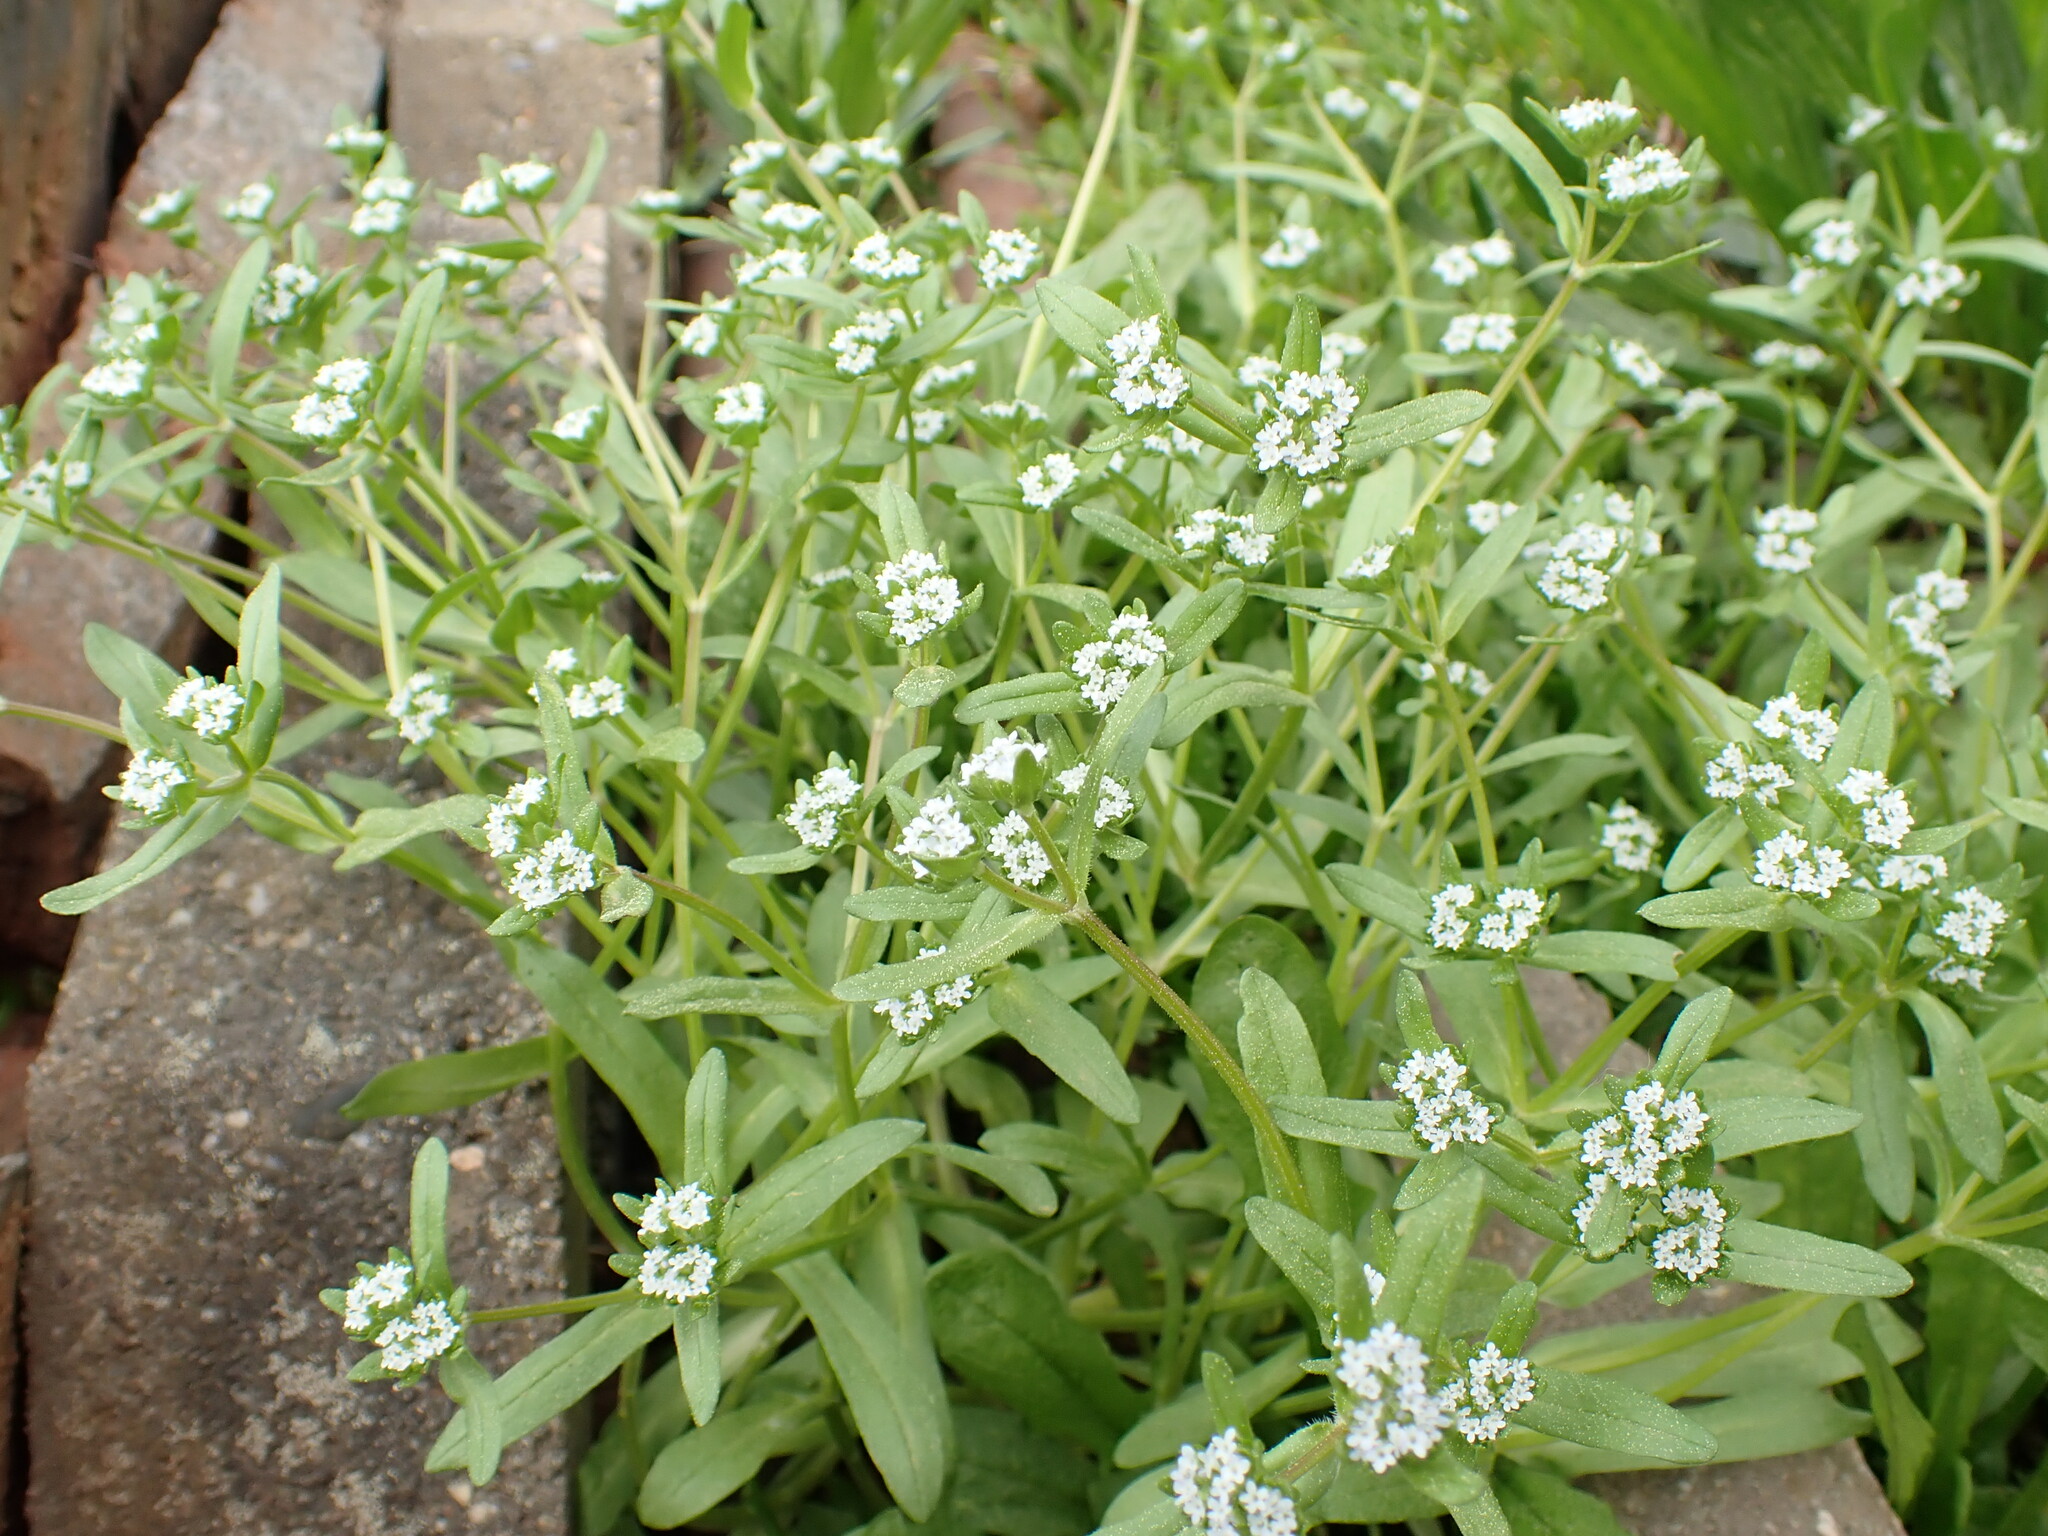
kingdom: Plantae
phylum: Tracheophyta
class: Magnoliopsida
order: Dipsacales
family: Caprifoliaceae
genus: Valerianella
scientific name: Valerianella locusta
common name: Common cornsalad
